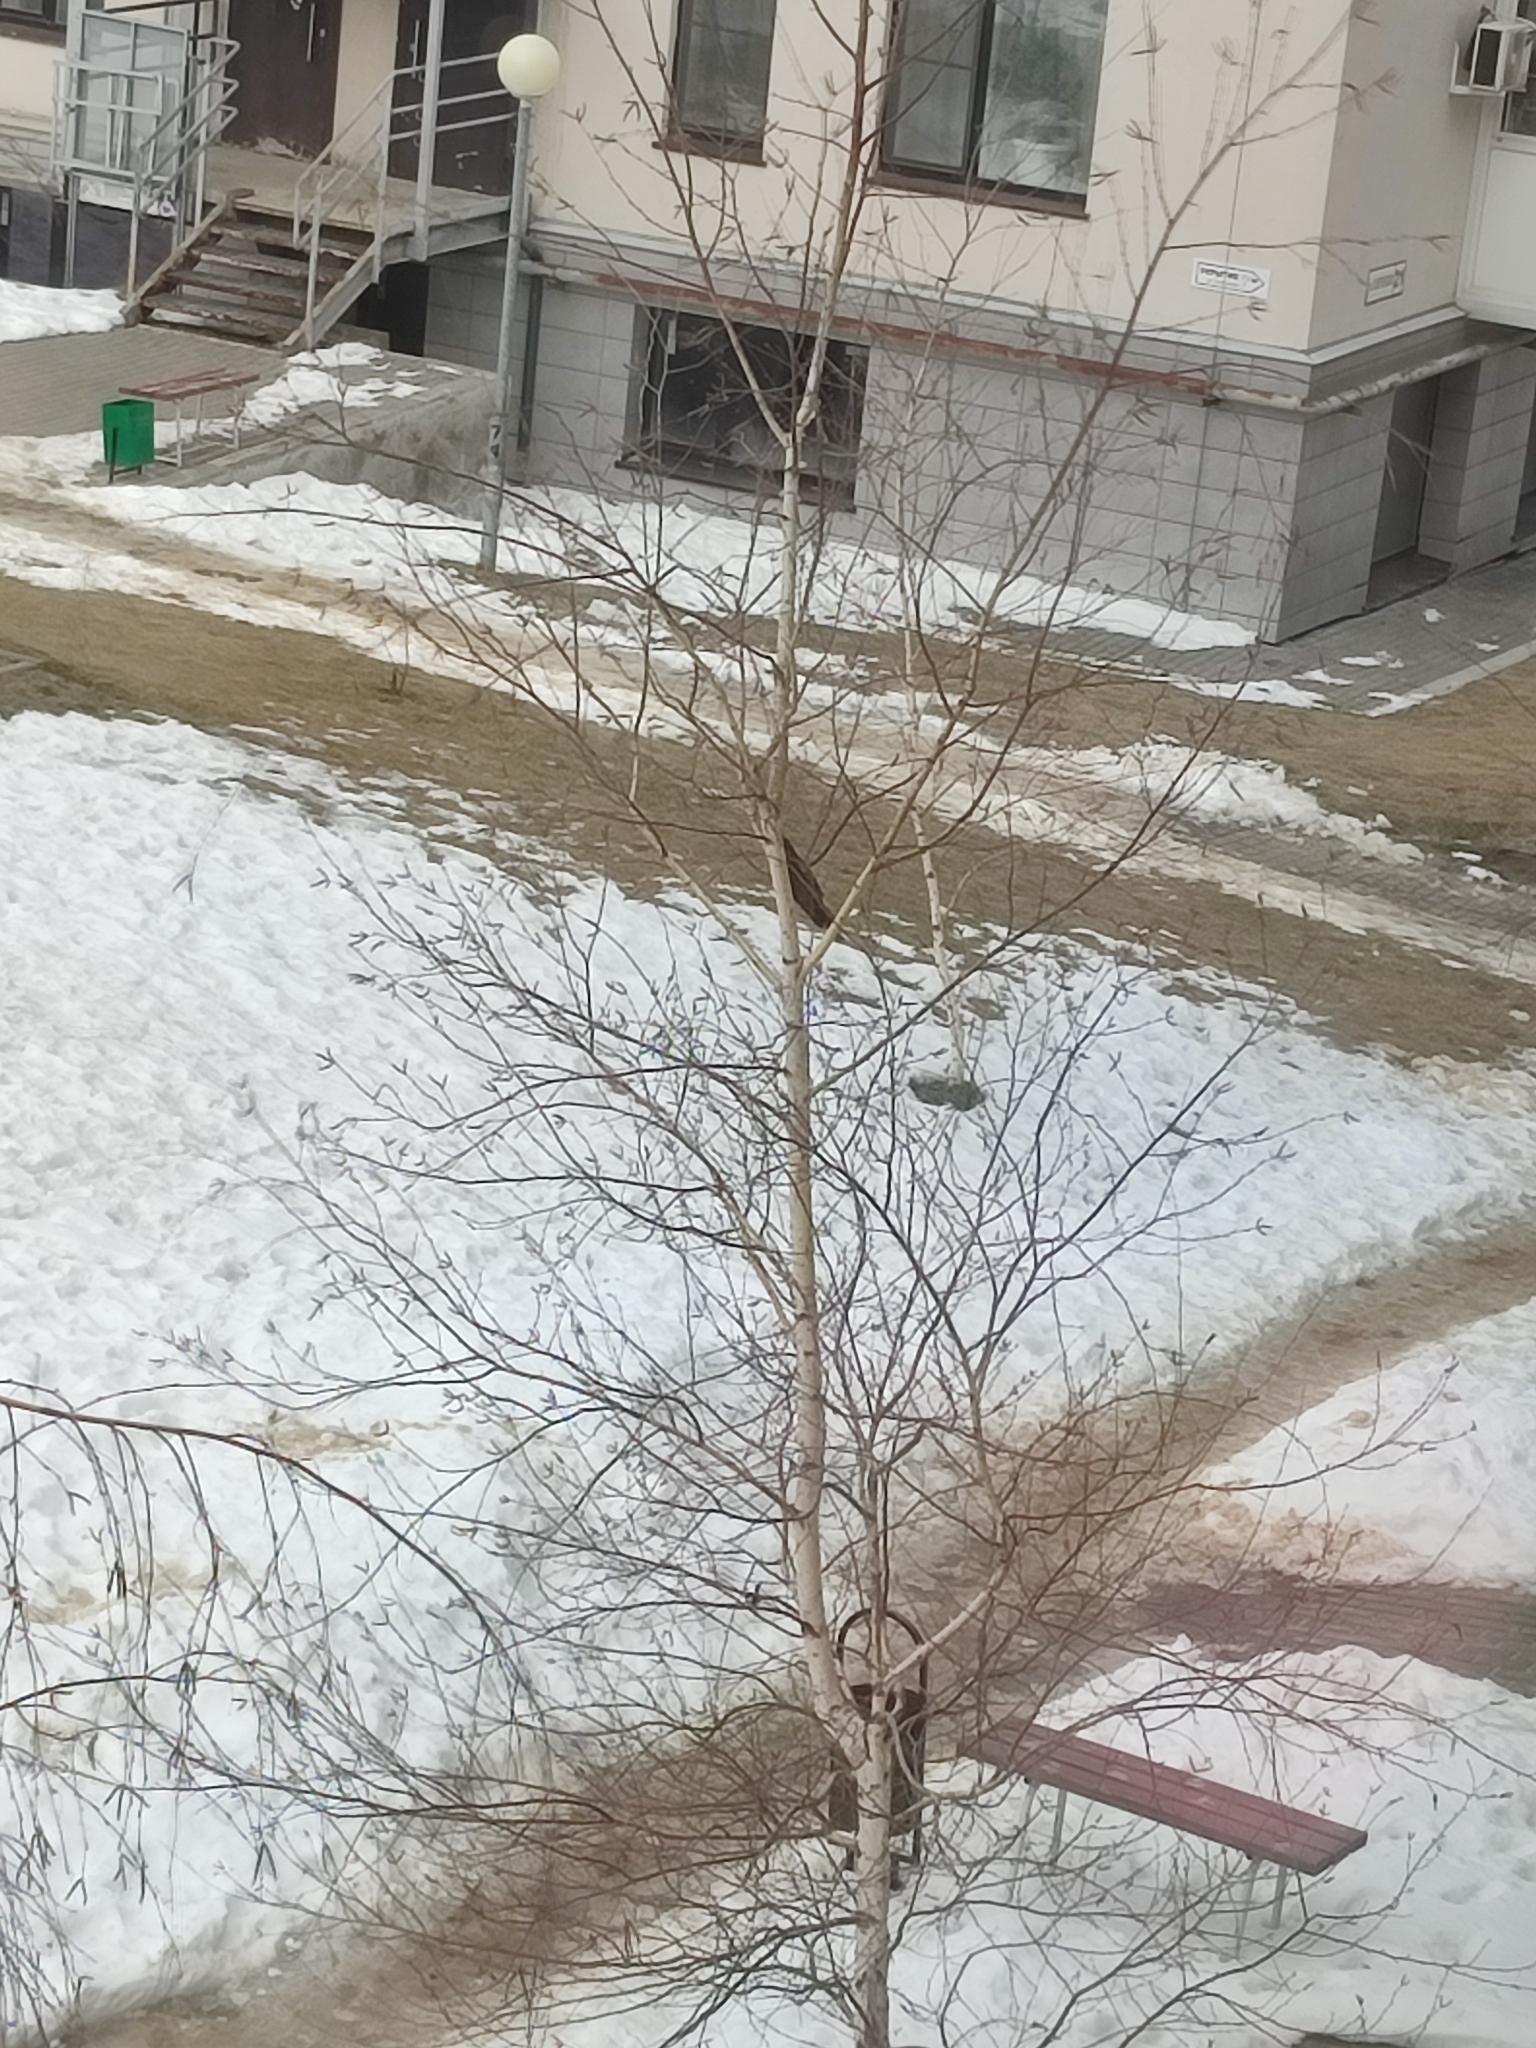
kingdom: Animalia
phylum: Chordata
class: Aves
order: Accipitriformes
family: Accipitridae
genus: Accipiter
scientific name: Accipiter nisus
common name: Eurasian sparrowhawk
